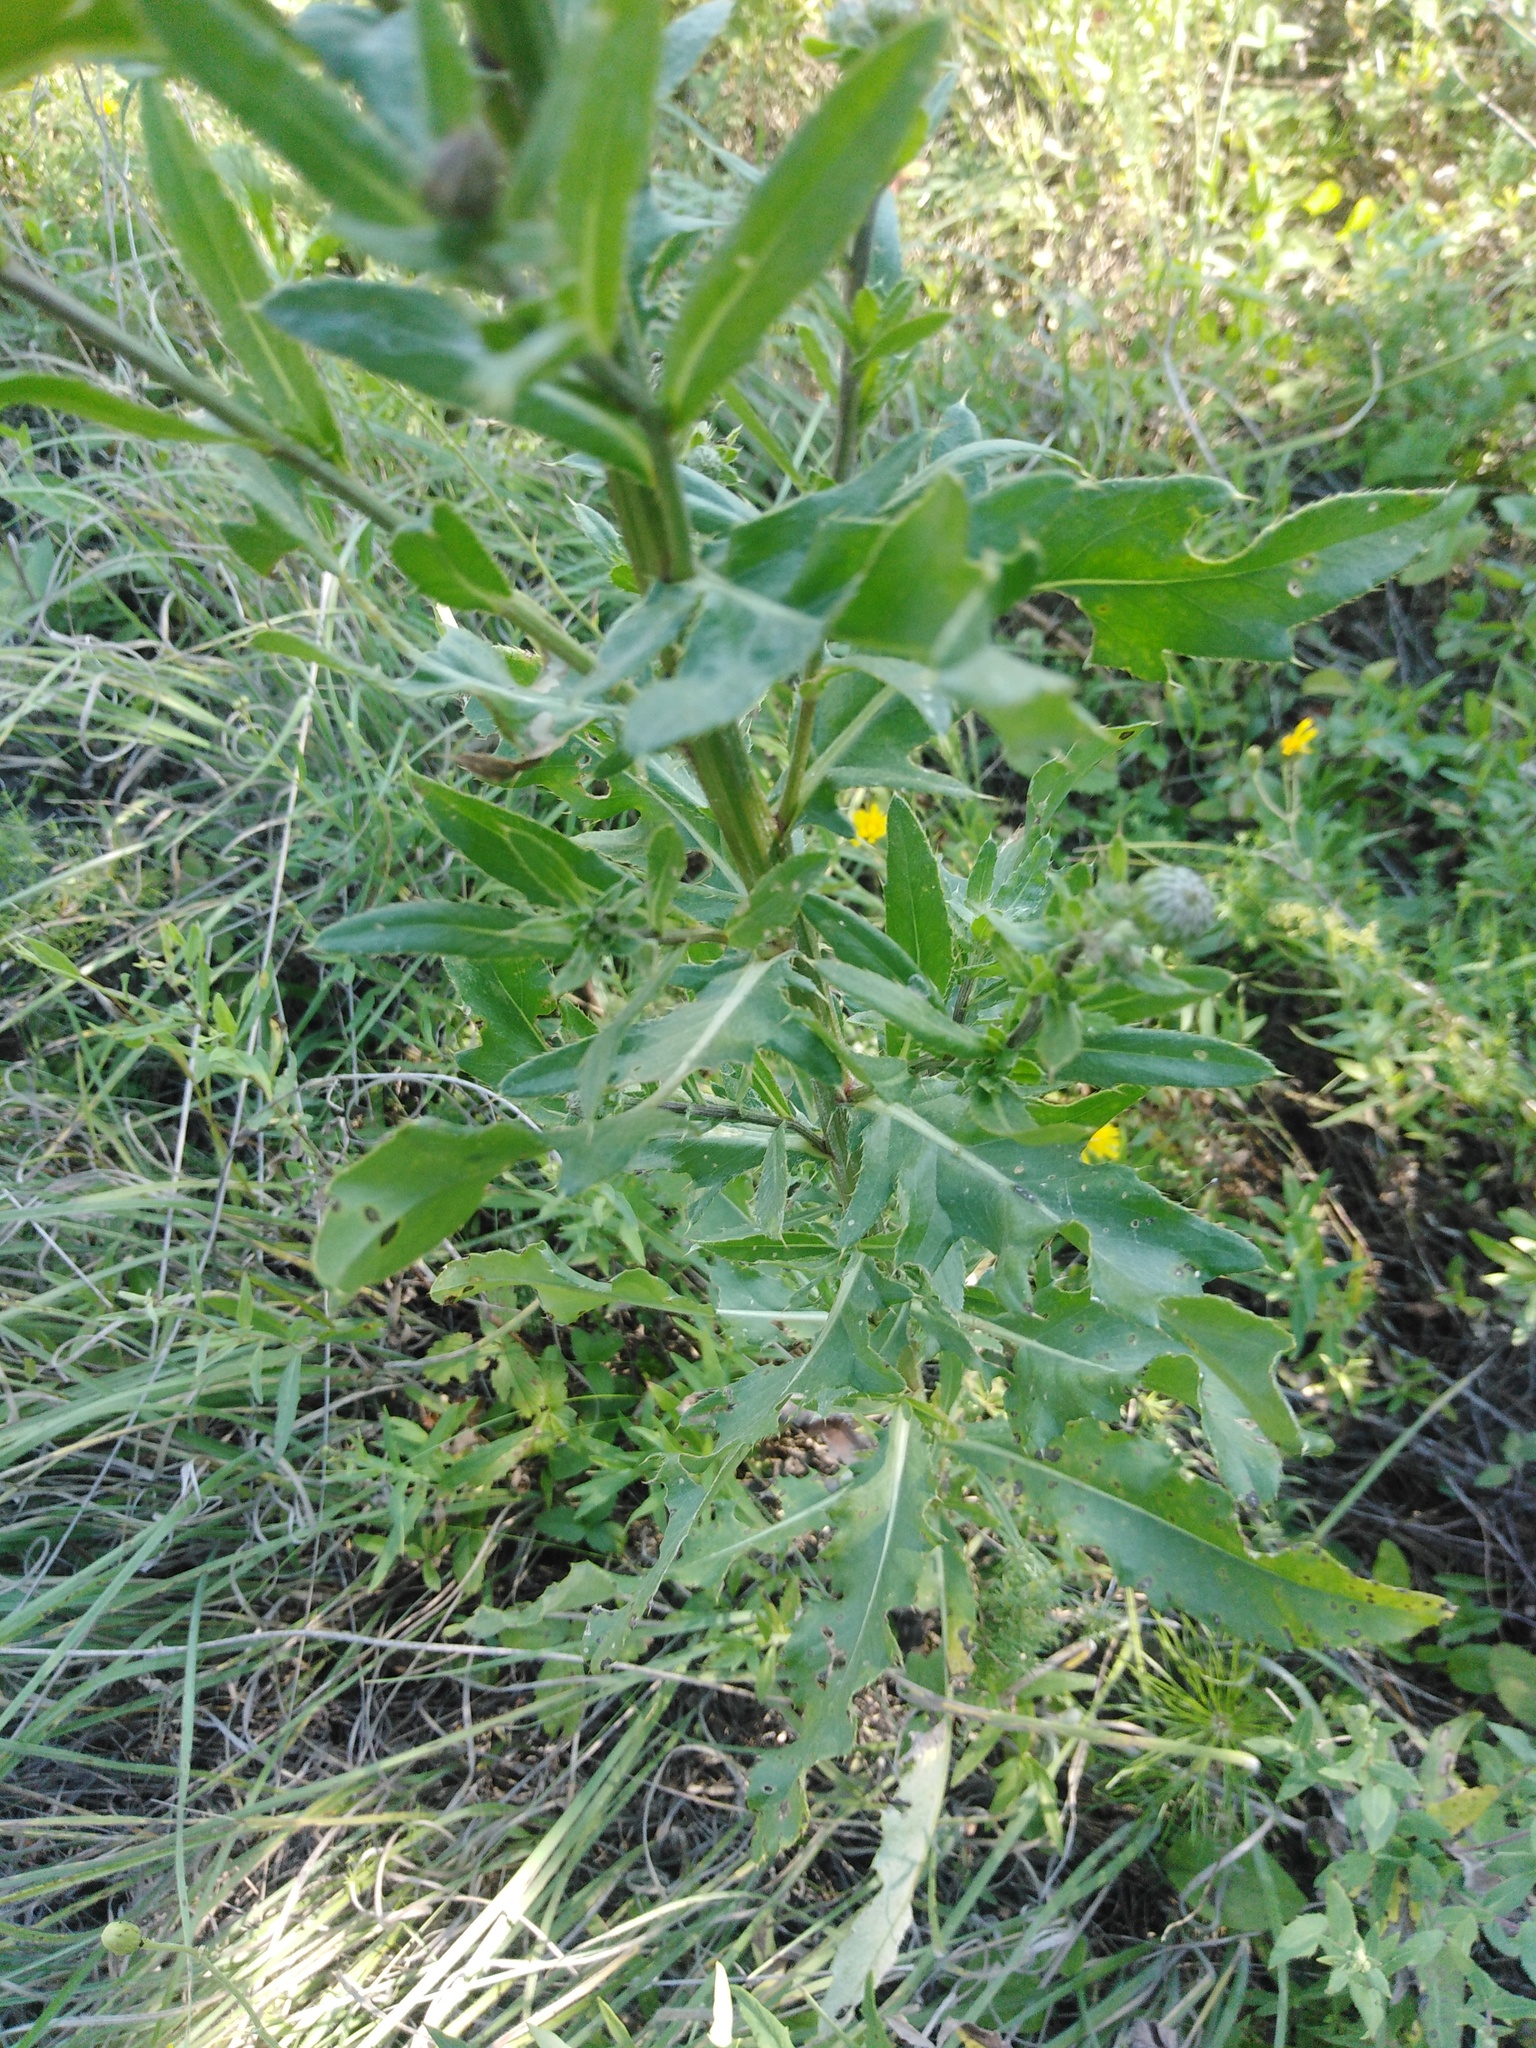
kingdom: Plantae
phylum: Tracheophyta
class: Magnoliopsida
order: Asterales
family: Asteraceae
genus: Cirsium
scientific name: Cirsium arvense
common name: Creeping thistle
